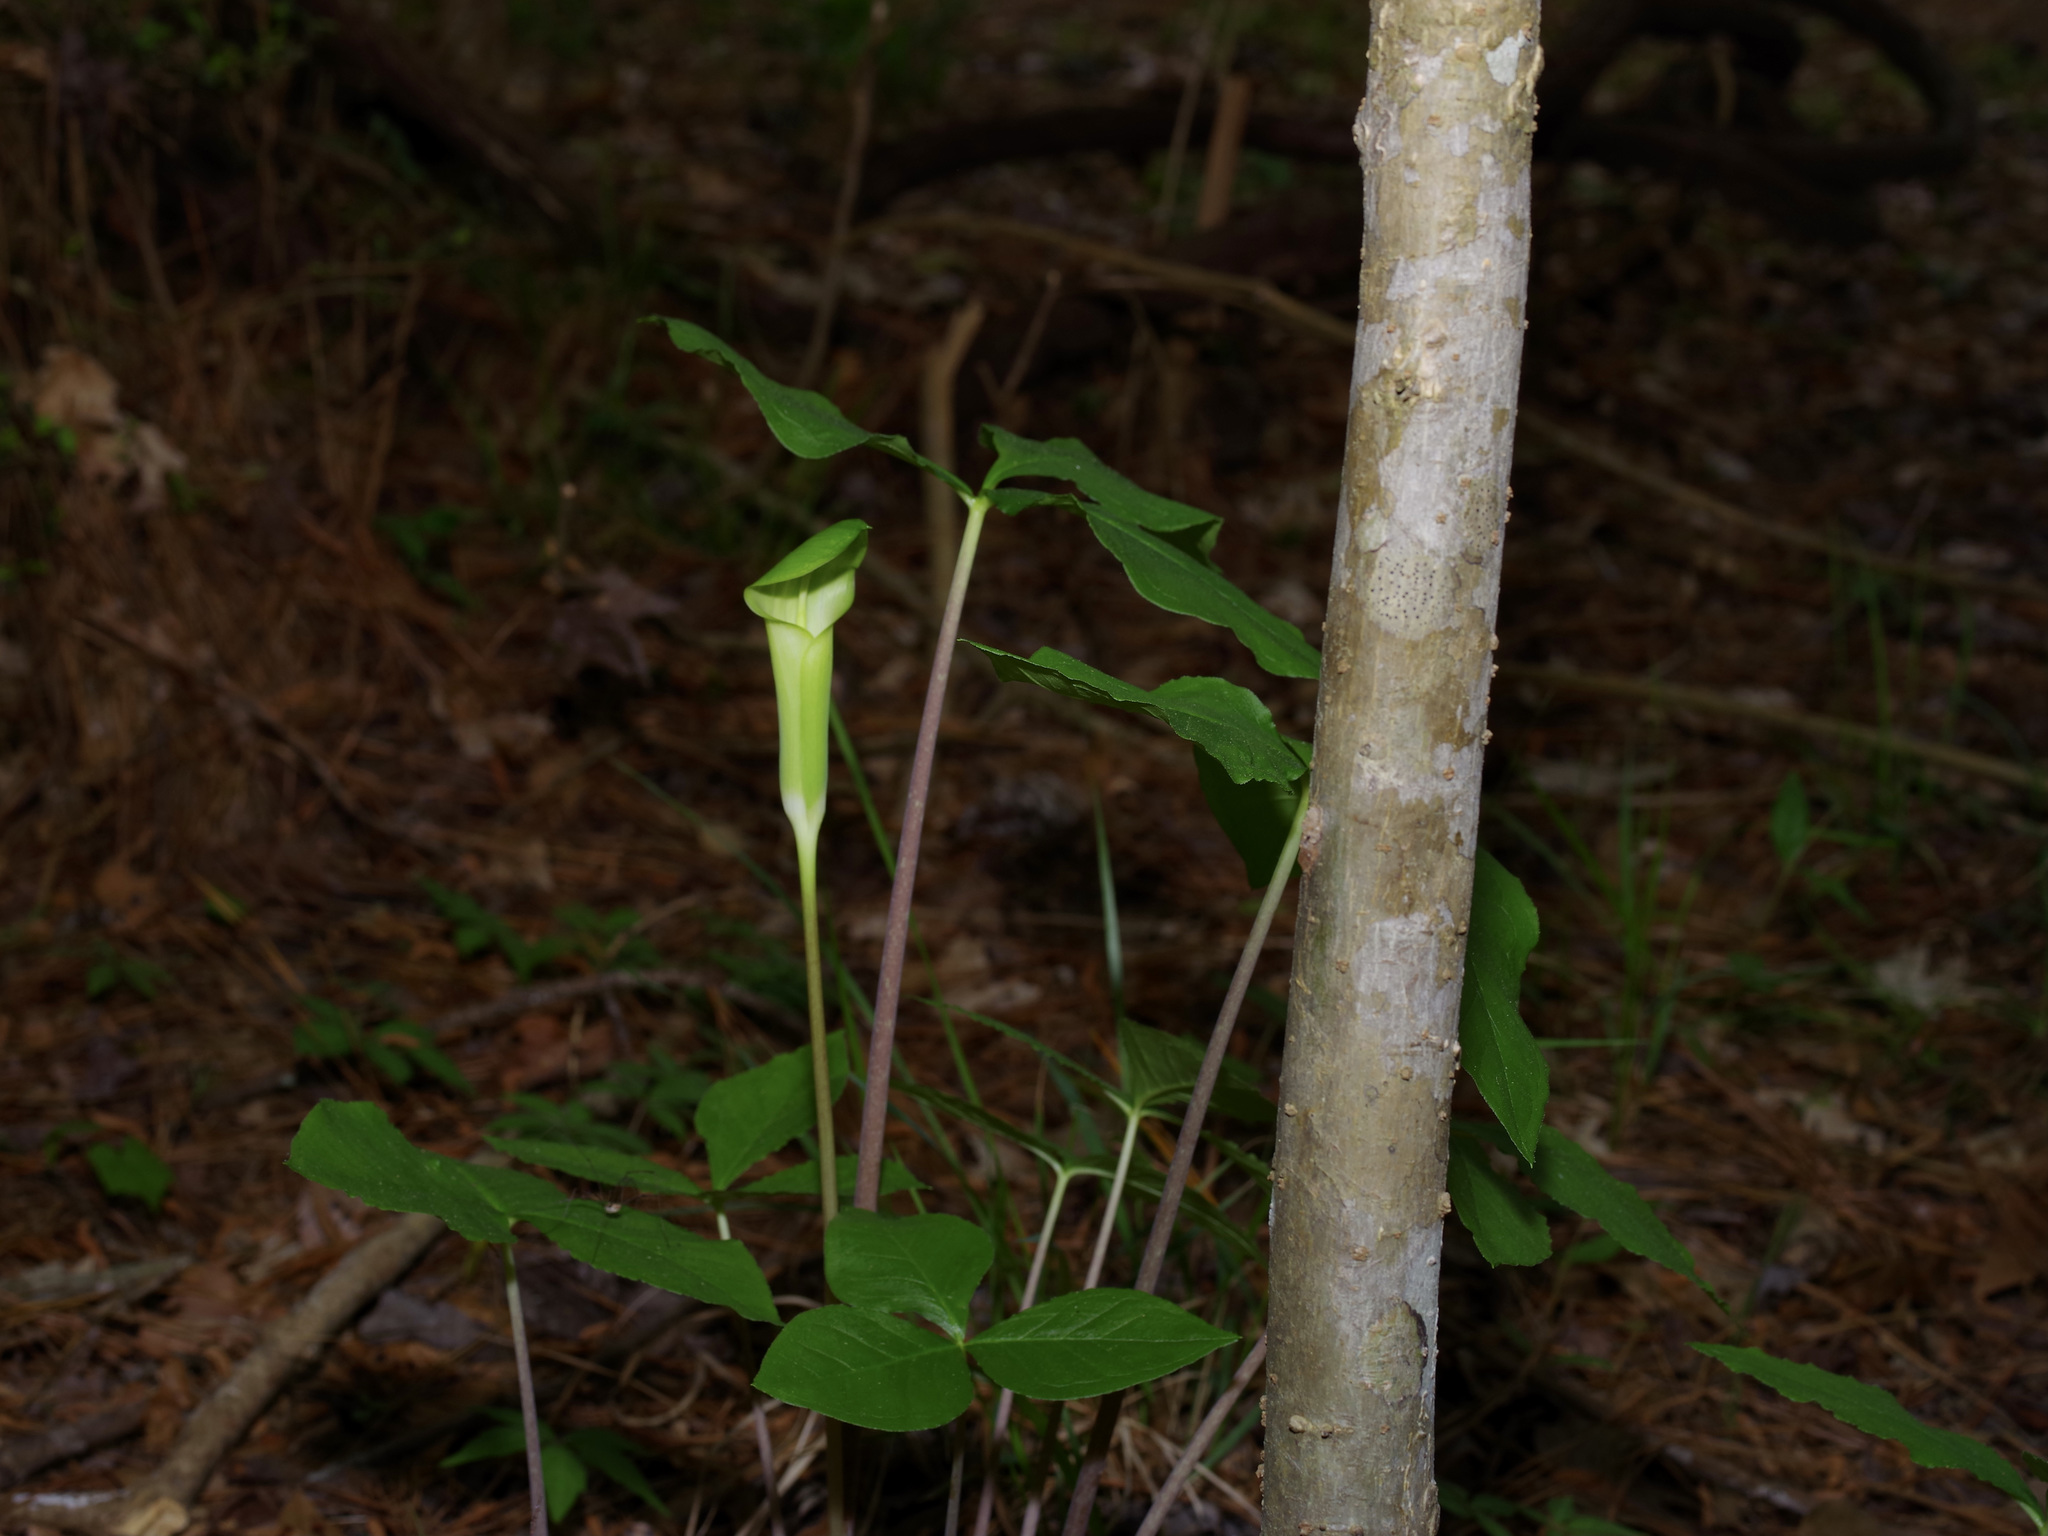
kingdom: Plantae
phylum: Tracheophyta
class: Liliopsida
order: Alismatales
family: Araceae
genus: Arisaema
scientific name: Arisaema quinatum
